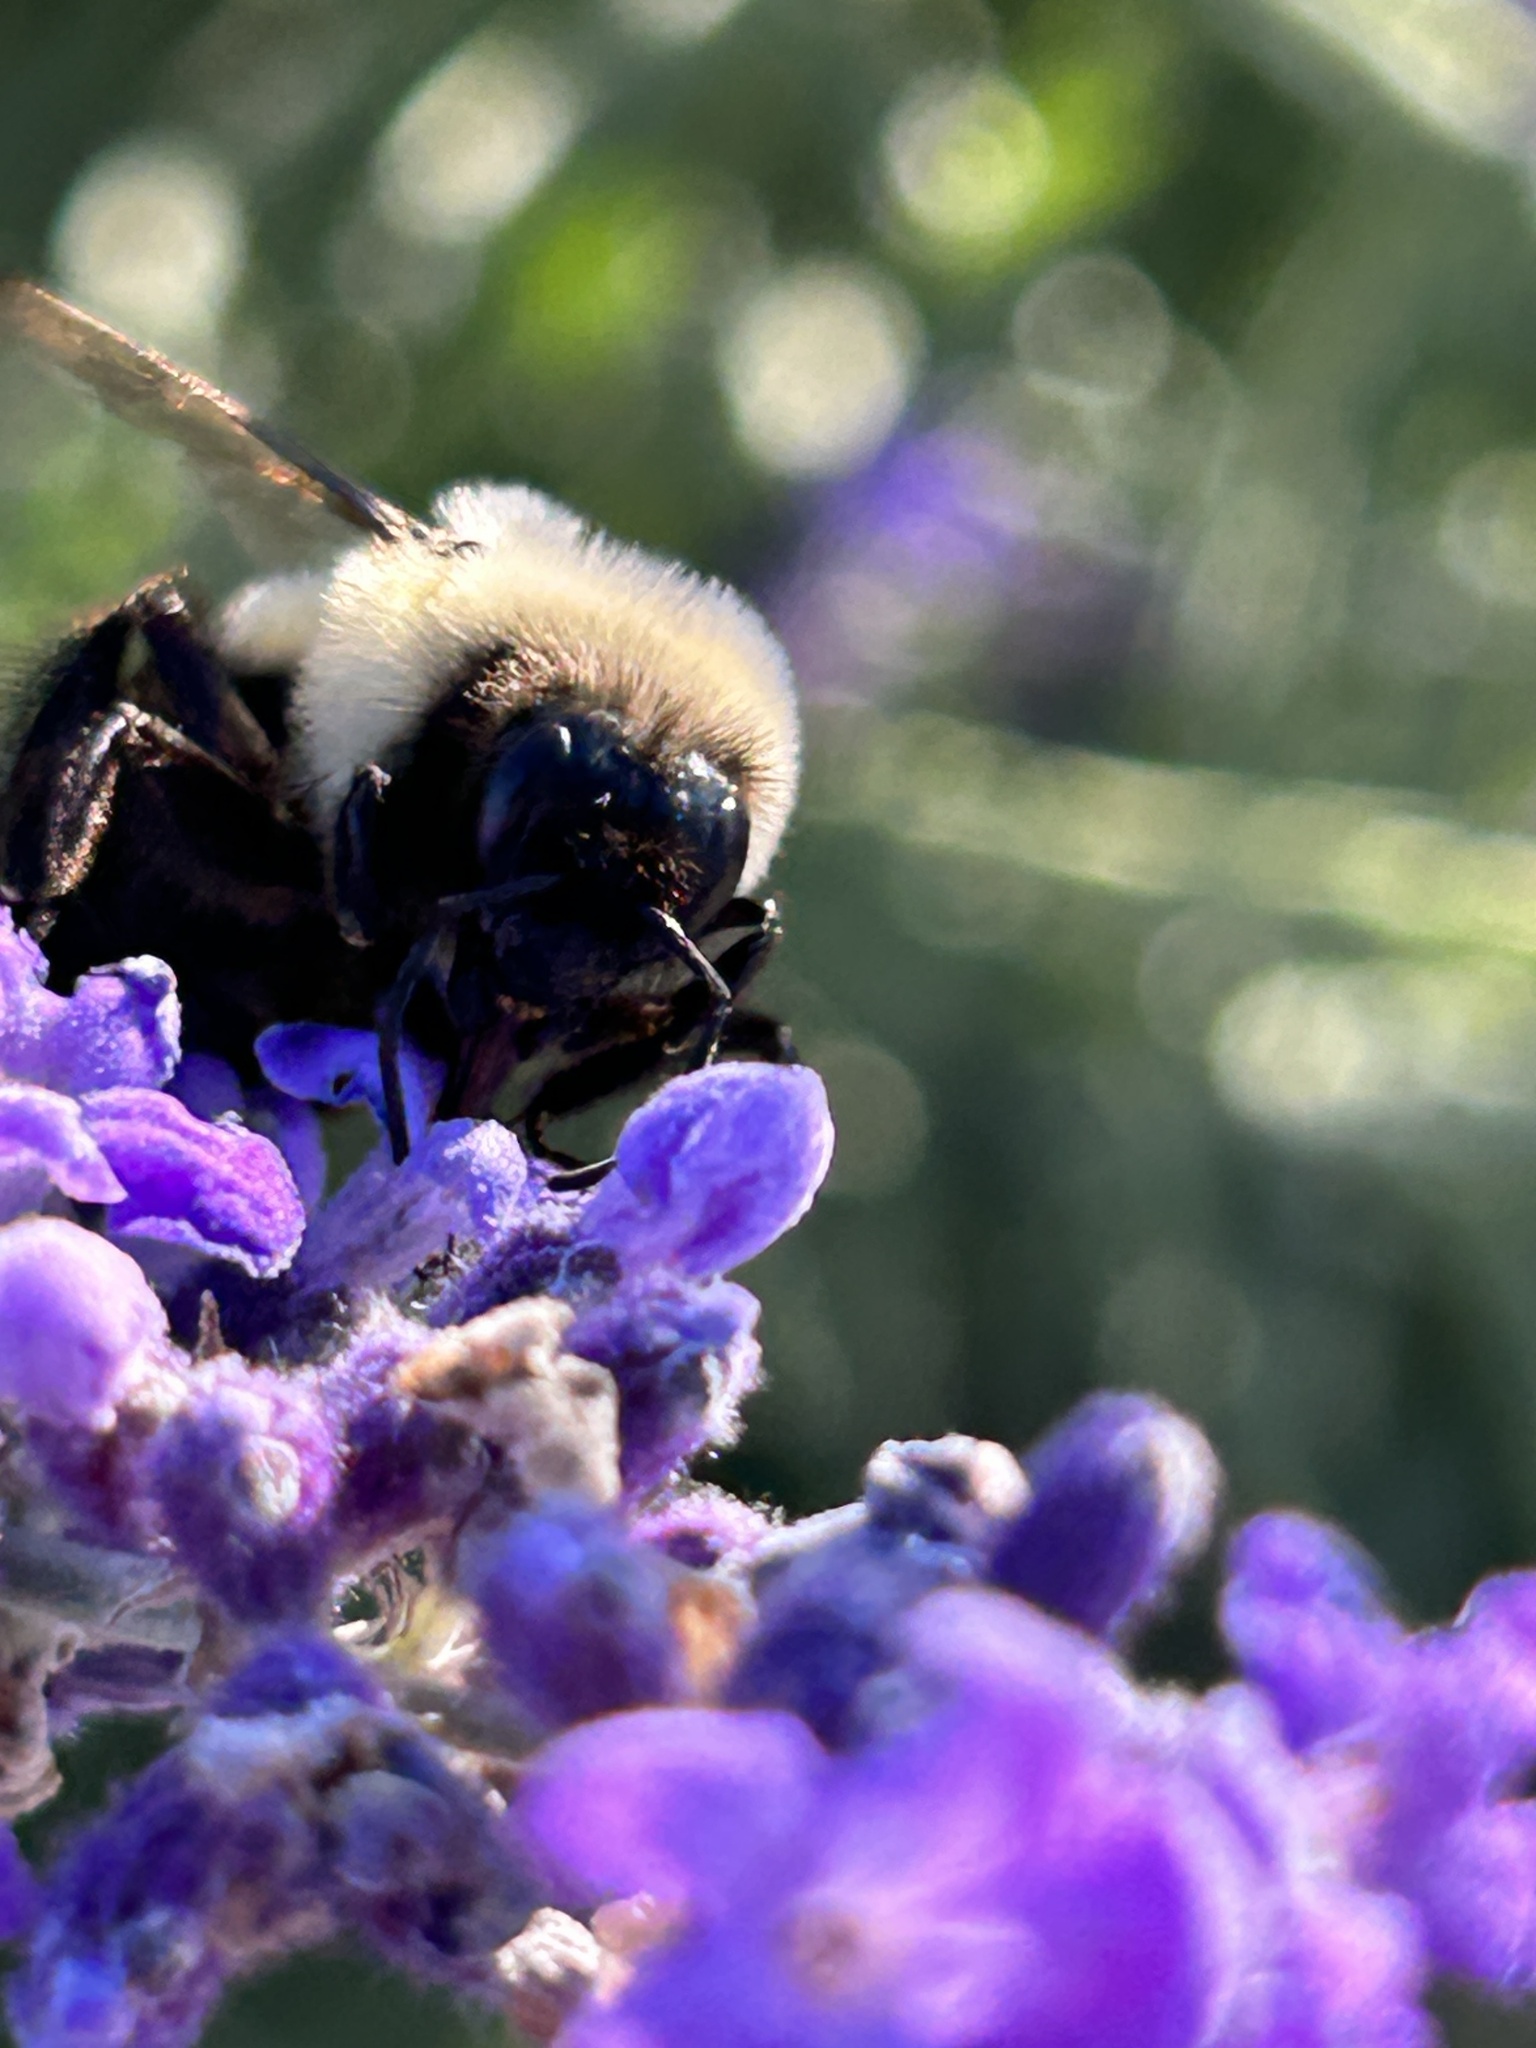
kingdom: Animalia
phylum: Arthropoda
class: Insecta
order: Hymenoptera
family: Apidae
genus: Bombus
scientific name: Bombus impatiens
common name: Common eastern bumble bee
